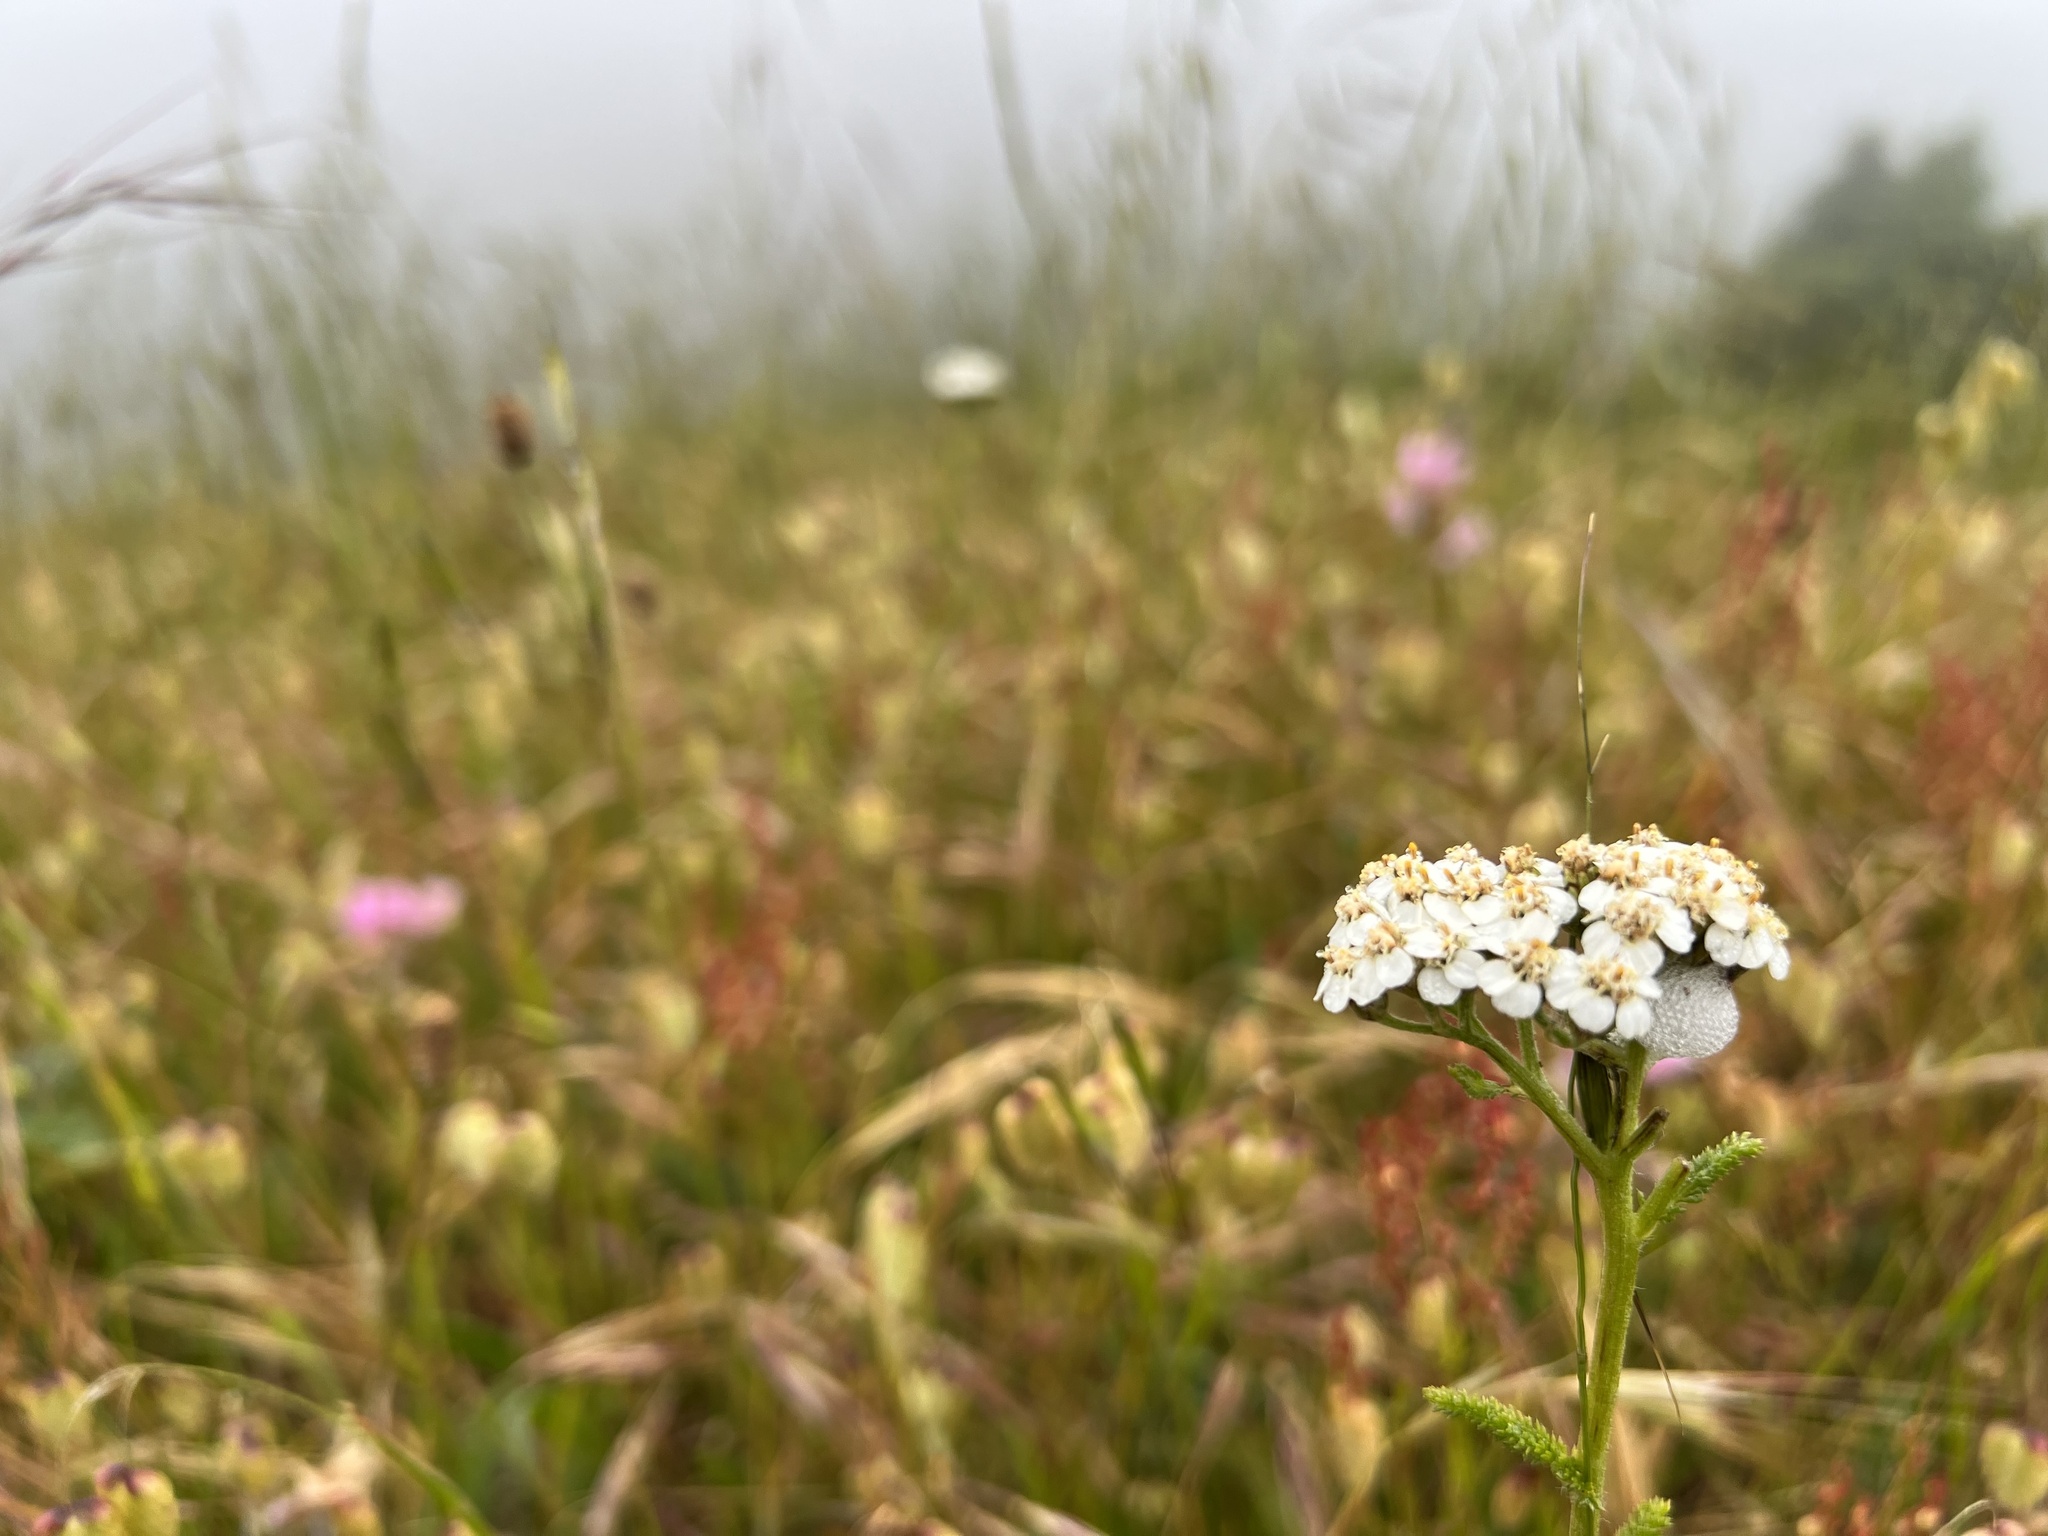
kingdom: Plantae
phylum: Tracheophyta
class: Magnoliopsida
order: Asterales
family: Asteraceae
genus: Achillea
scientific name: Achillea millefolium
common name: Yarrow
